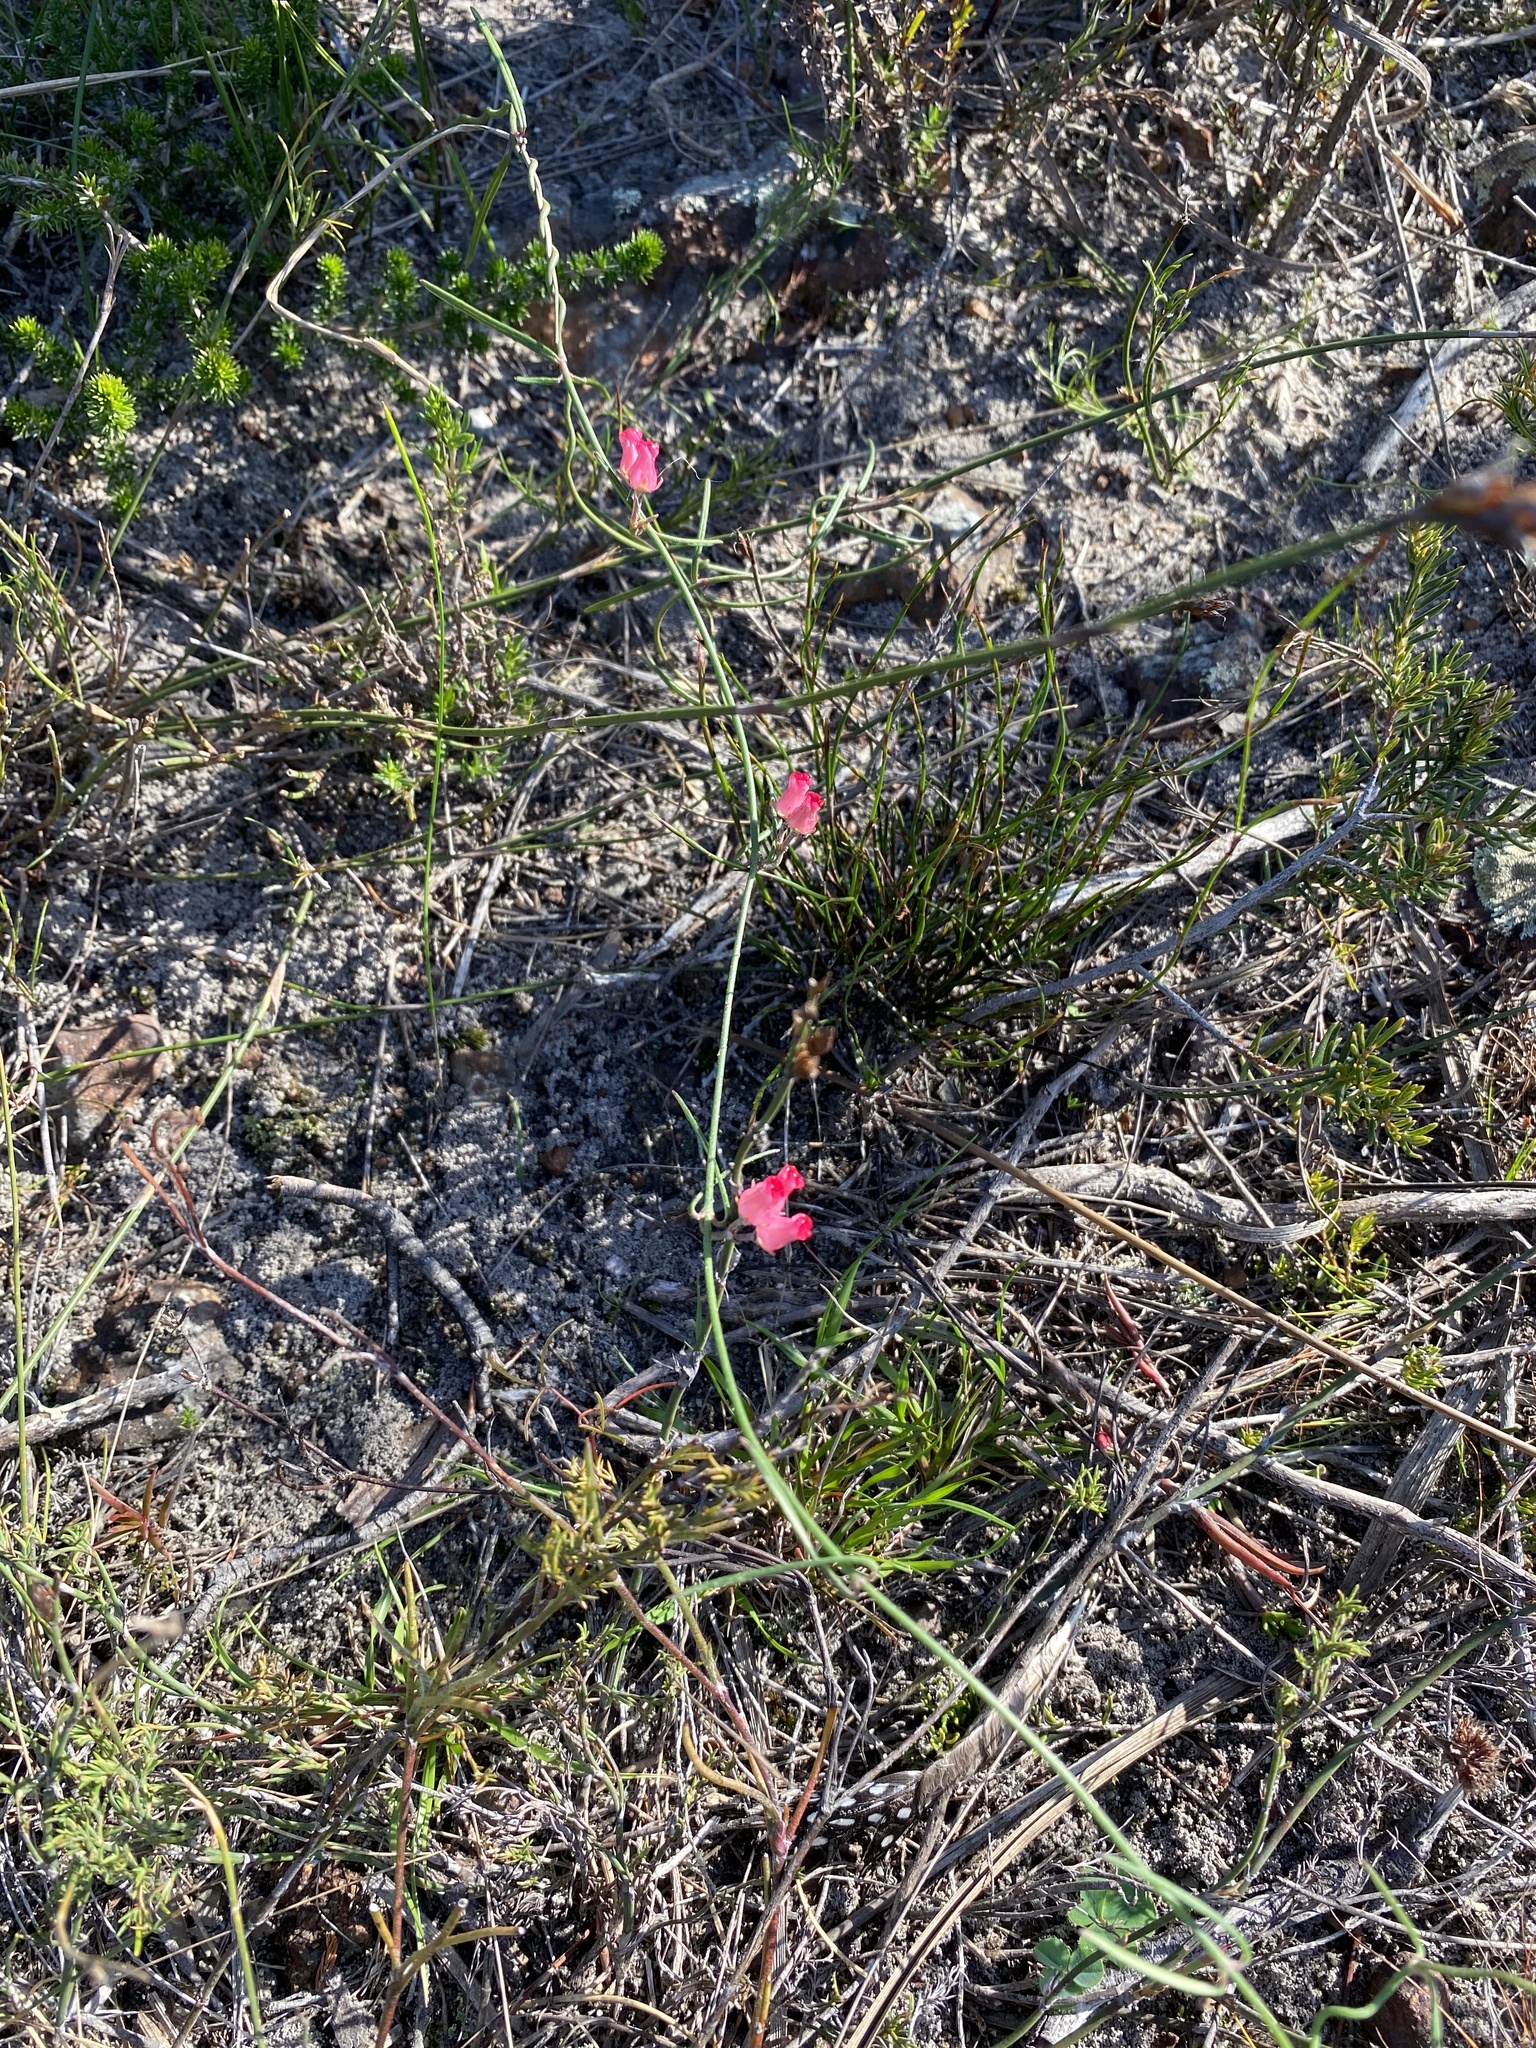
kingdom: Plantae
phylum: Tracheophyta
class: Magnoliopsida
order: Gentianales
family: Apocynaceae
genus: Microloma
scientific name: Microloma tenuifolium
